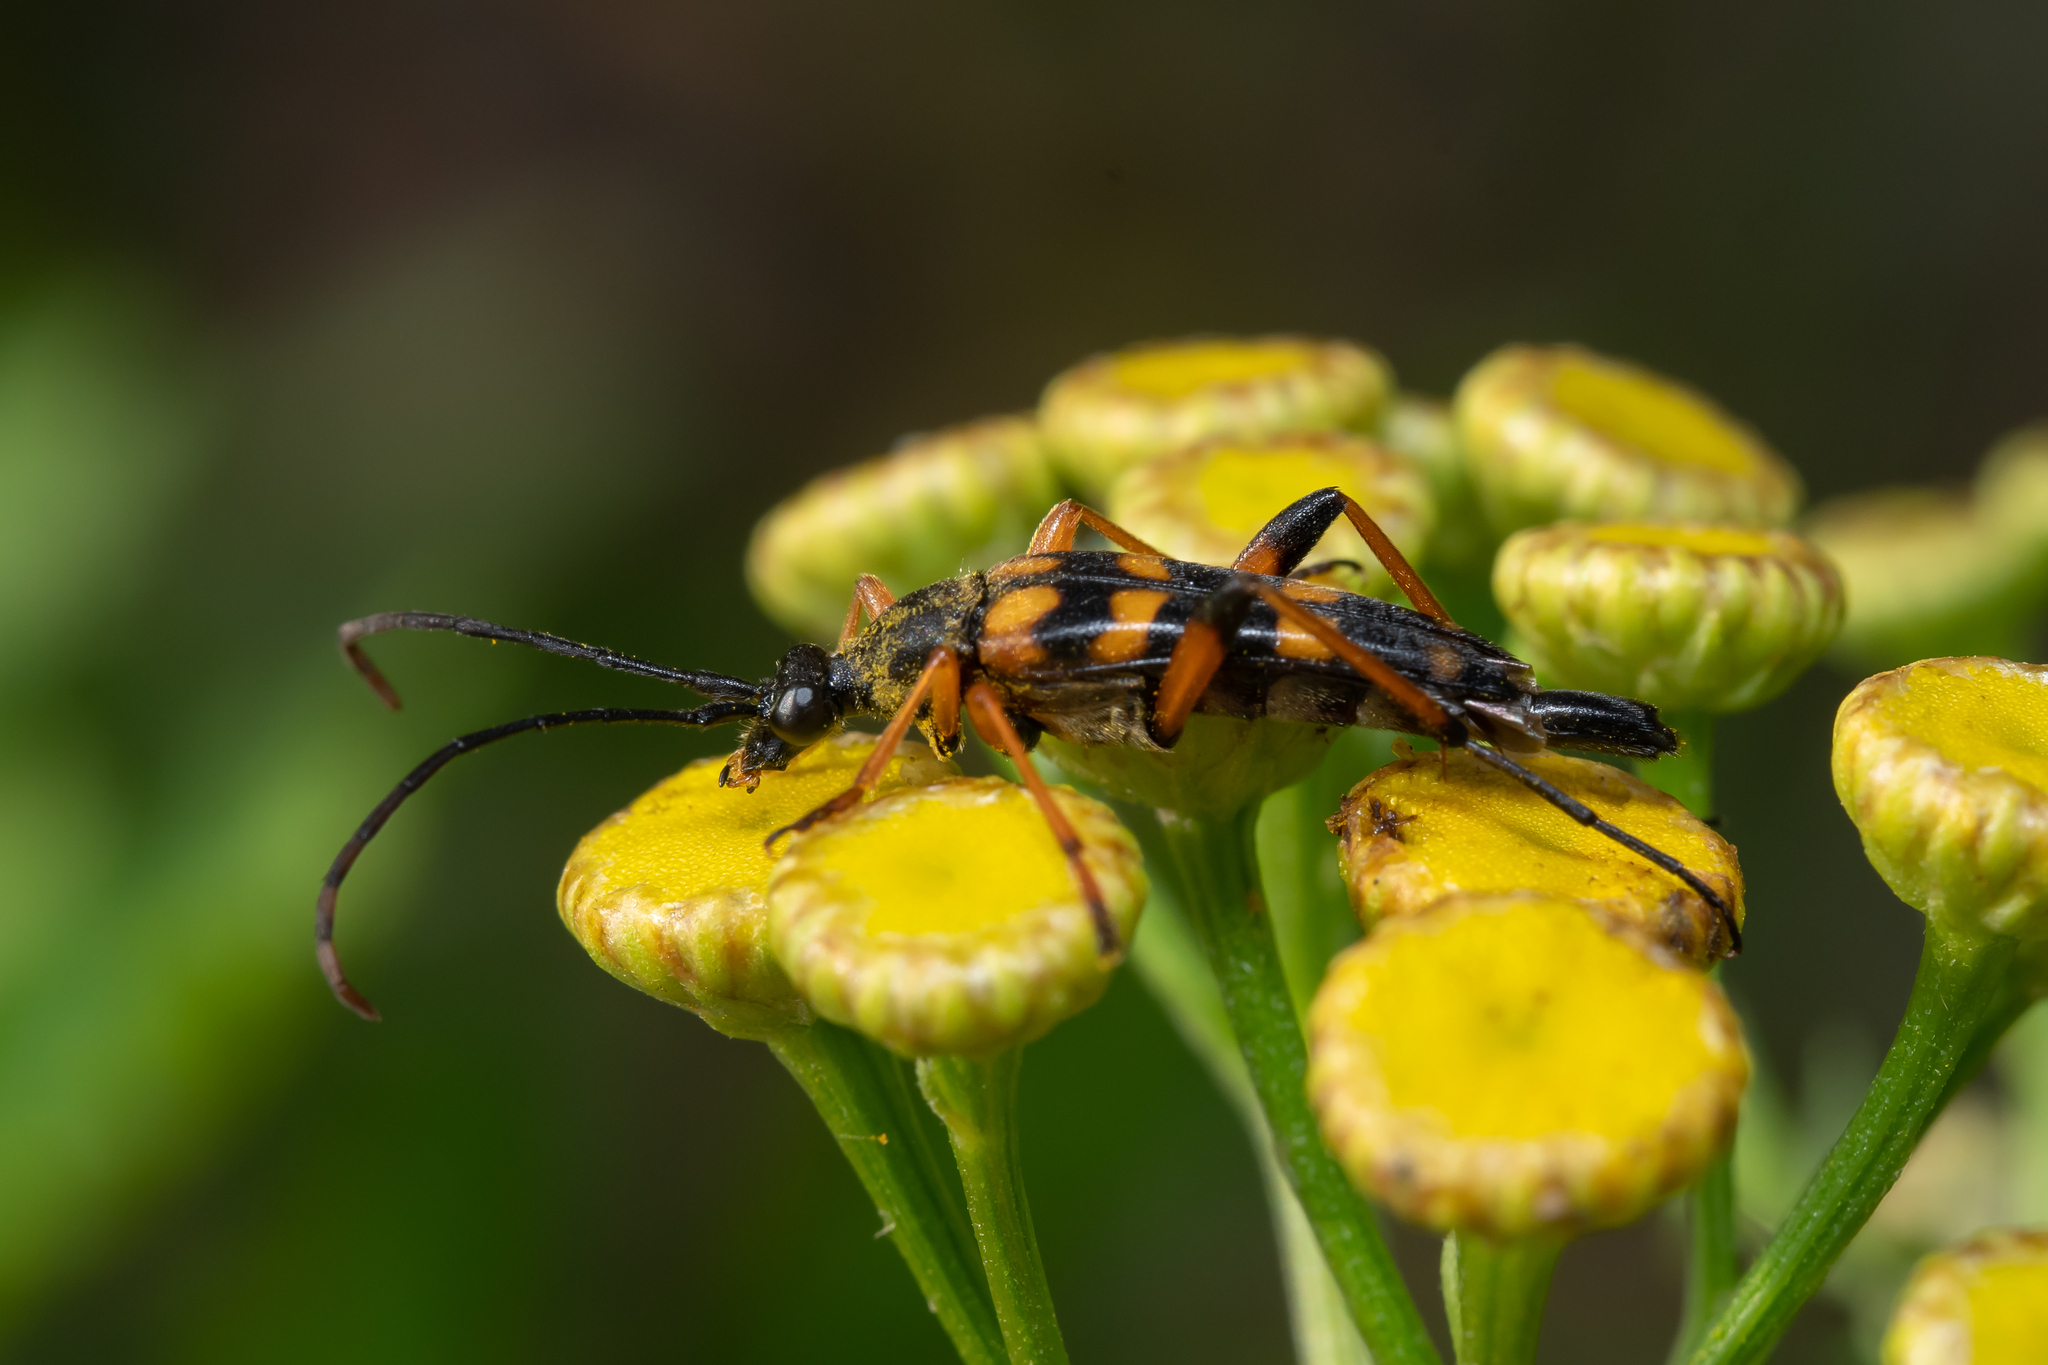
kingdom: Animalia
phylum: Arthropoda
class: Insecta
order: Coleoptera
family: Cerambycidae
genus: Strangalia
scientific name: Strangalia attenuata
